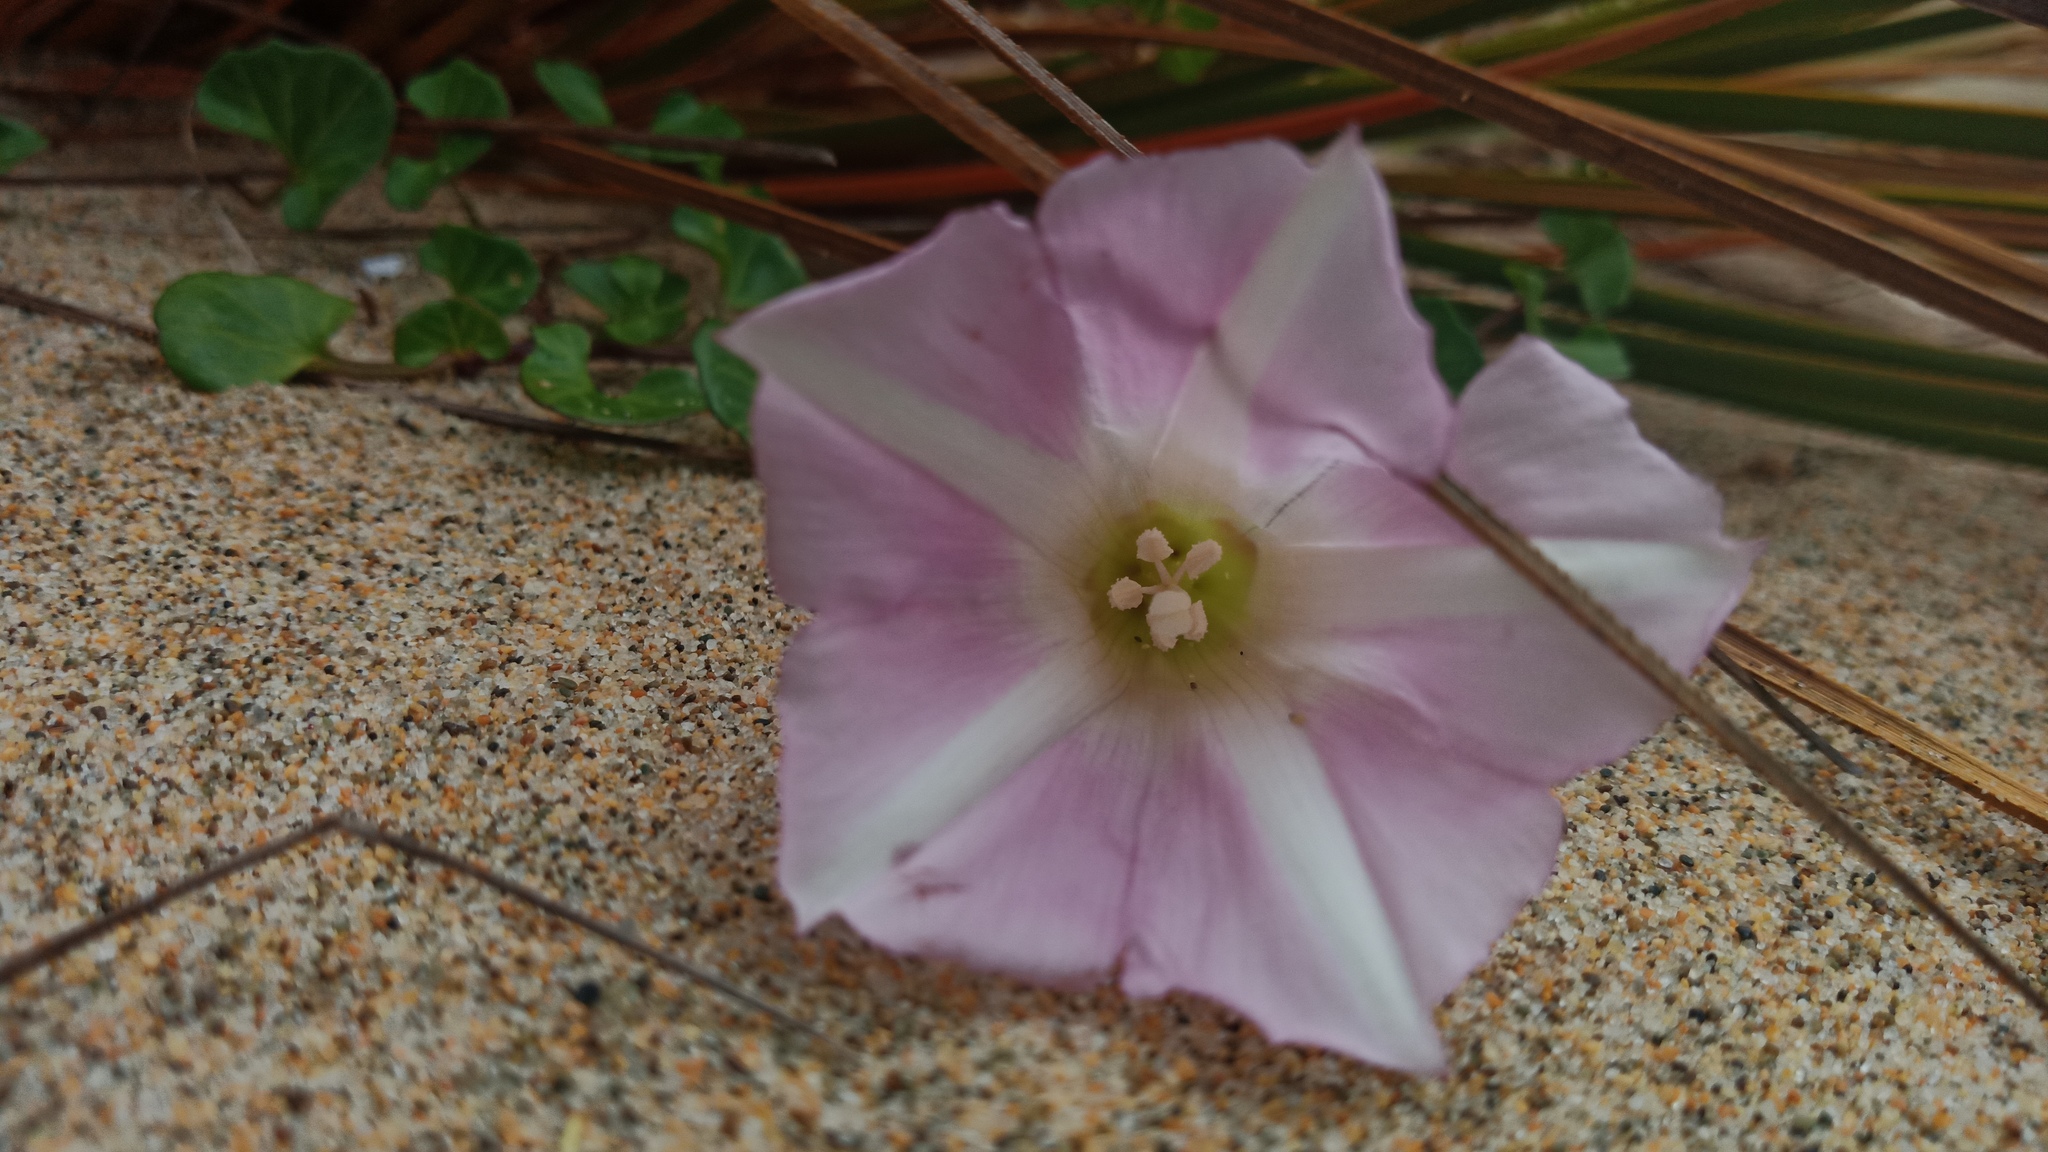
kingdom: Plantae
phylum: Tracheophyta
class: Magnoliopsida
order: Solanales
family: Convolvulaceae
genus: Calystegia
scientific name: Calystegia soldanella
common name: Sea bindweed
